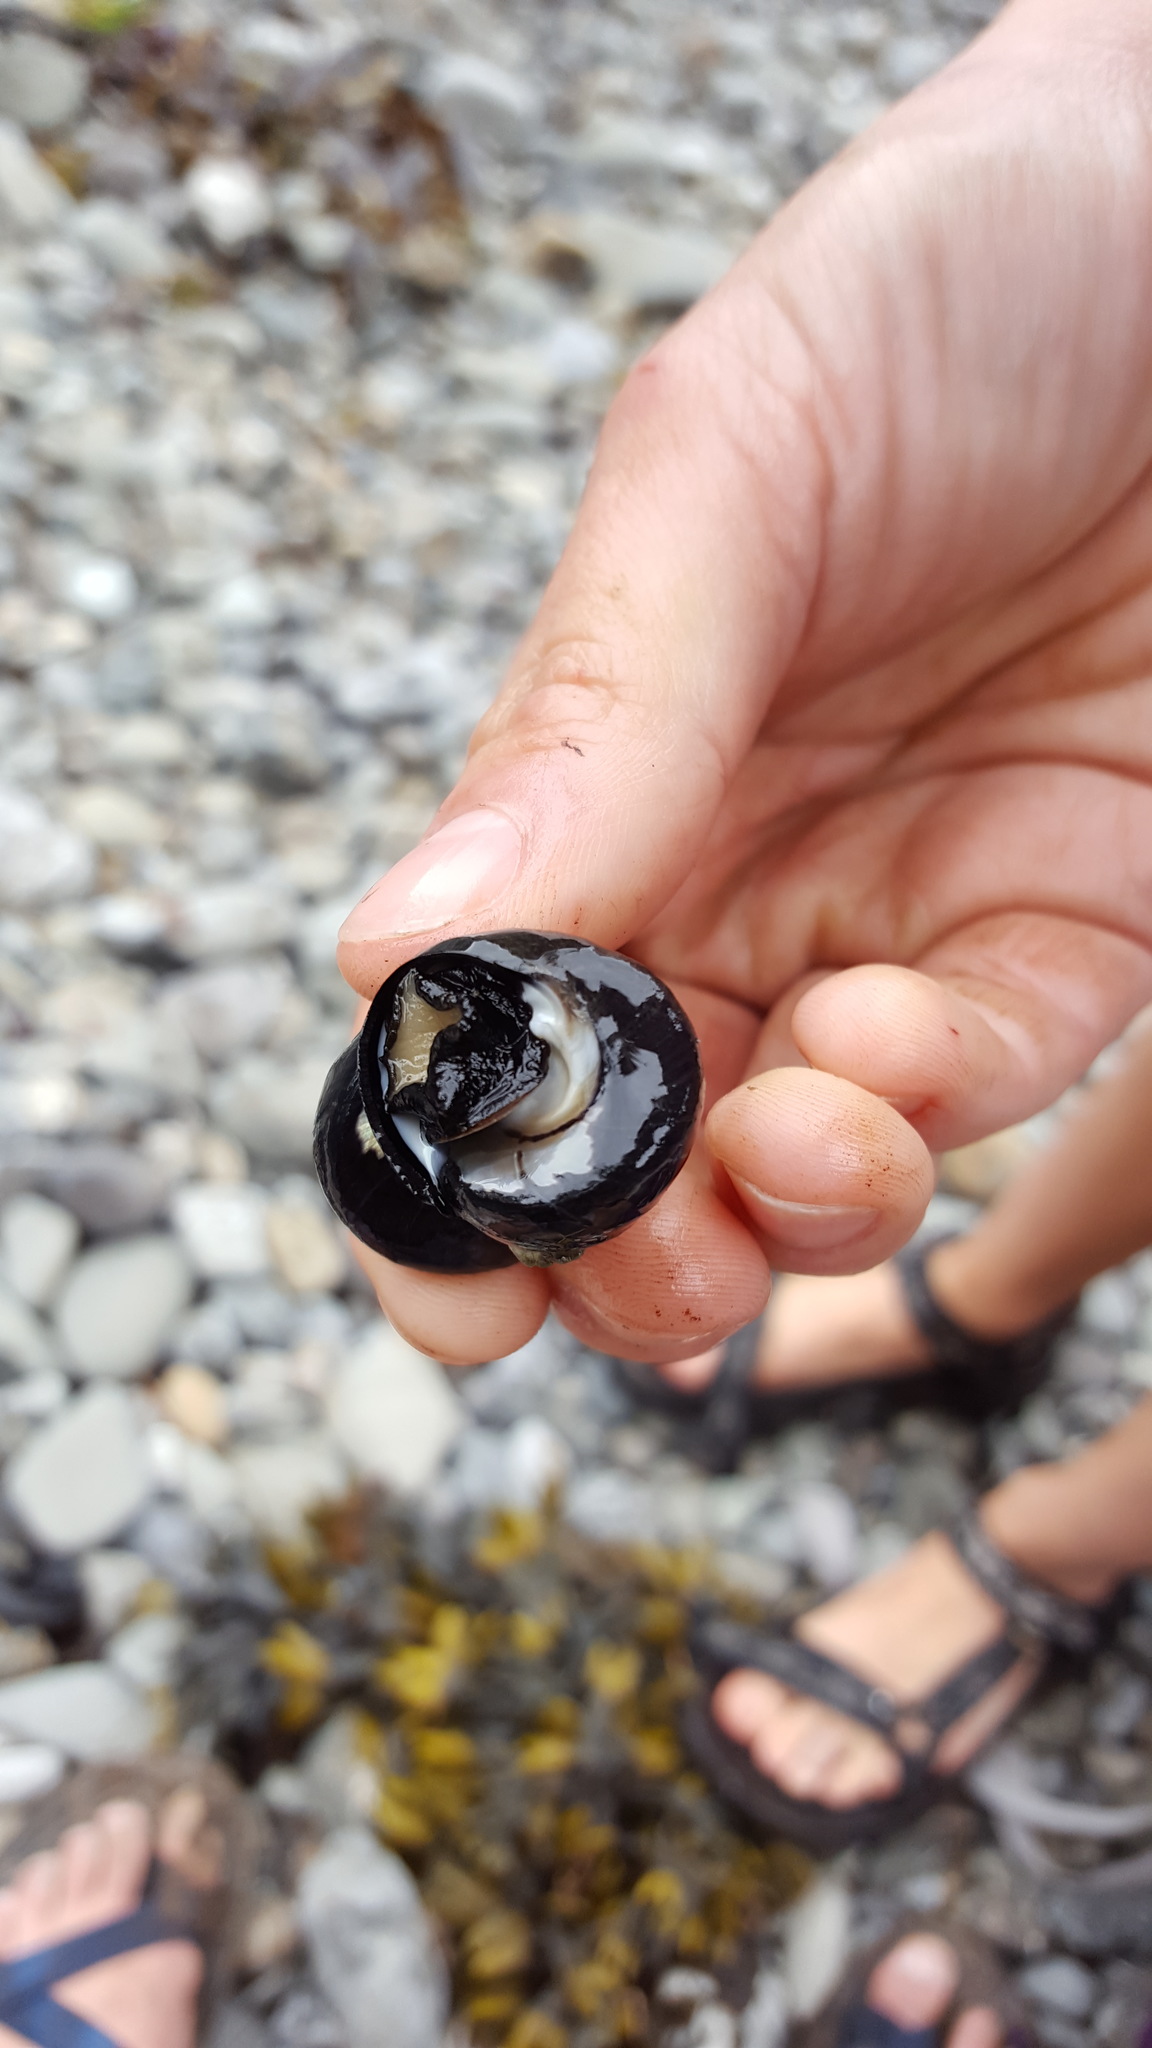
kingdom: Animalia
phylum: Mollusca
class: Gastropoda
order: Trochida
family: Tegulidae
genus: Tegula
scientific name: Tegula funebralis
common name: Black tegula
